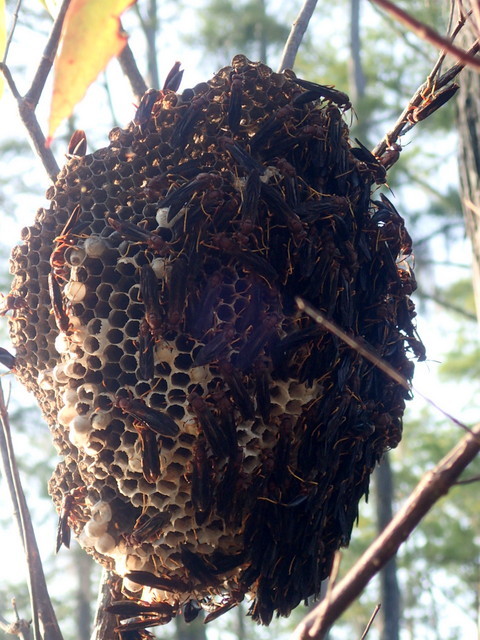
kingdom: Animalia
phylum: Arthropoda
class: Insecta
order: Hymenoptera
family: Eumenidae
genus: Polistes
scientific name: Polistes annularis
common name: Ringed paper wasp
